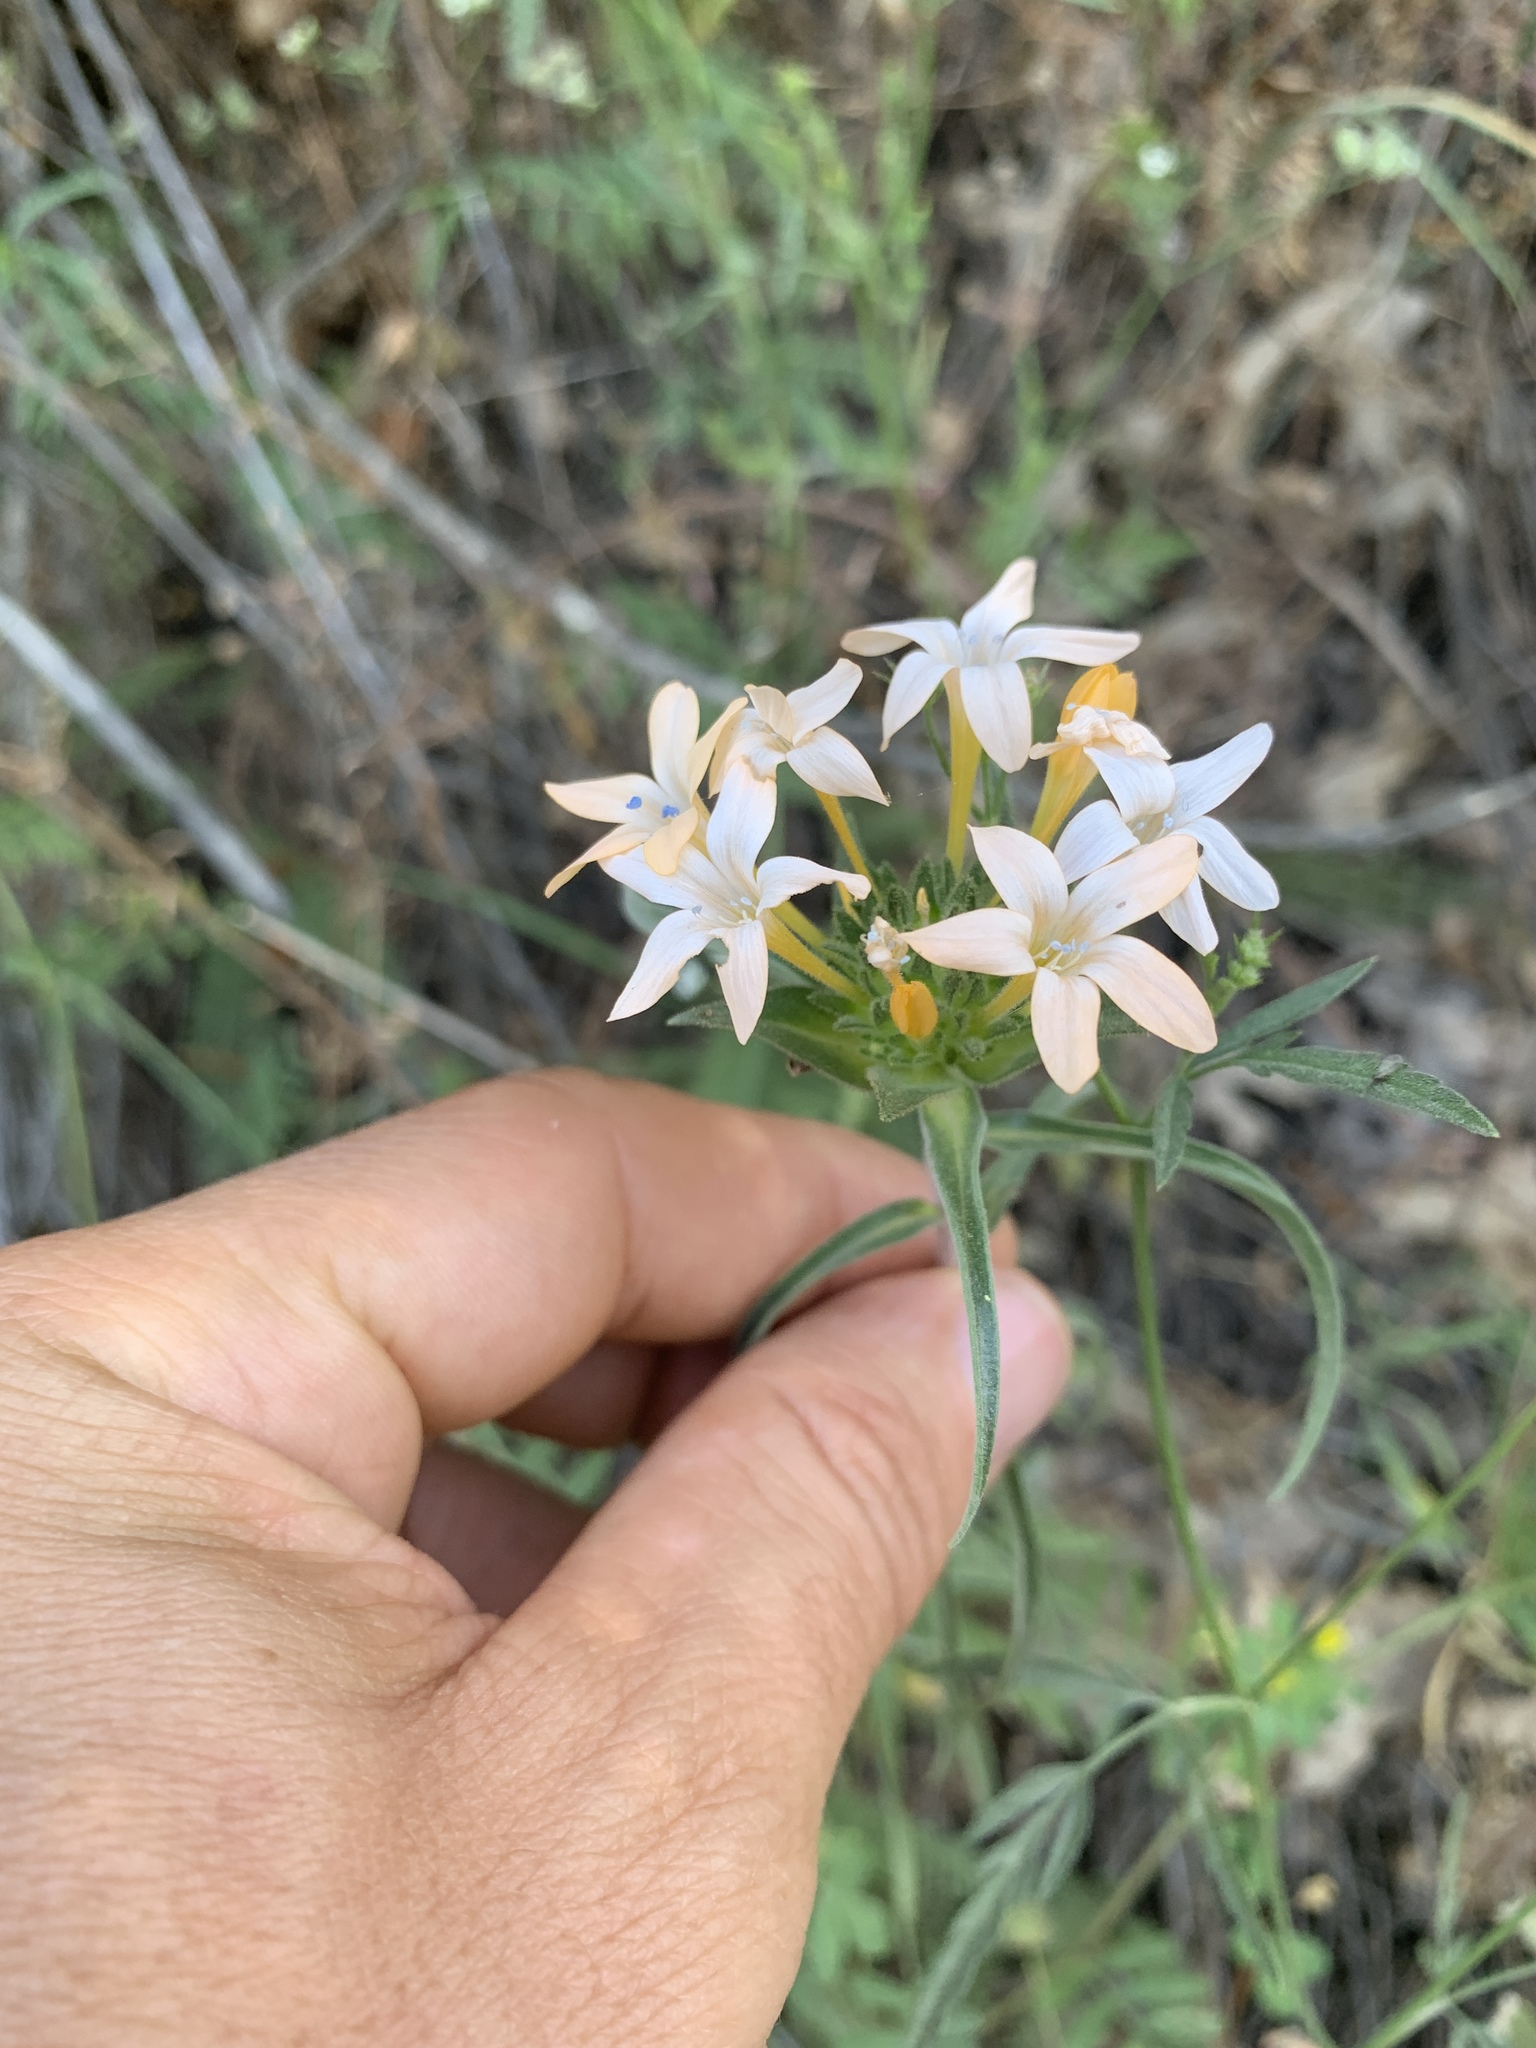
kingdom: Plantae
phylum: Tracheophyta
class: Magnoliopsida
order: Ericales
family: Polemoniaceae
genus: Collomia
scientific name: Collomia grandiflora
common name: California strawflower
